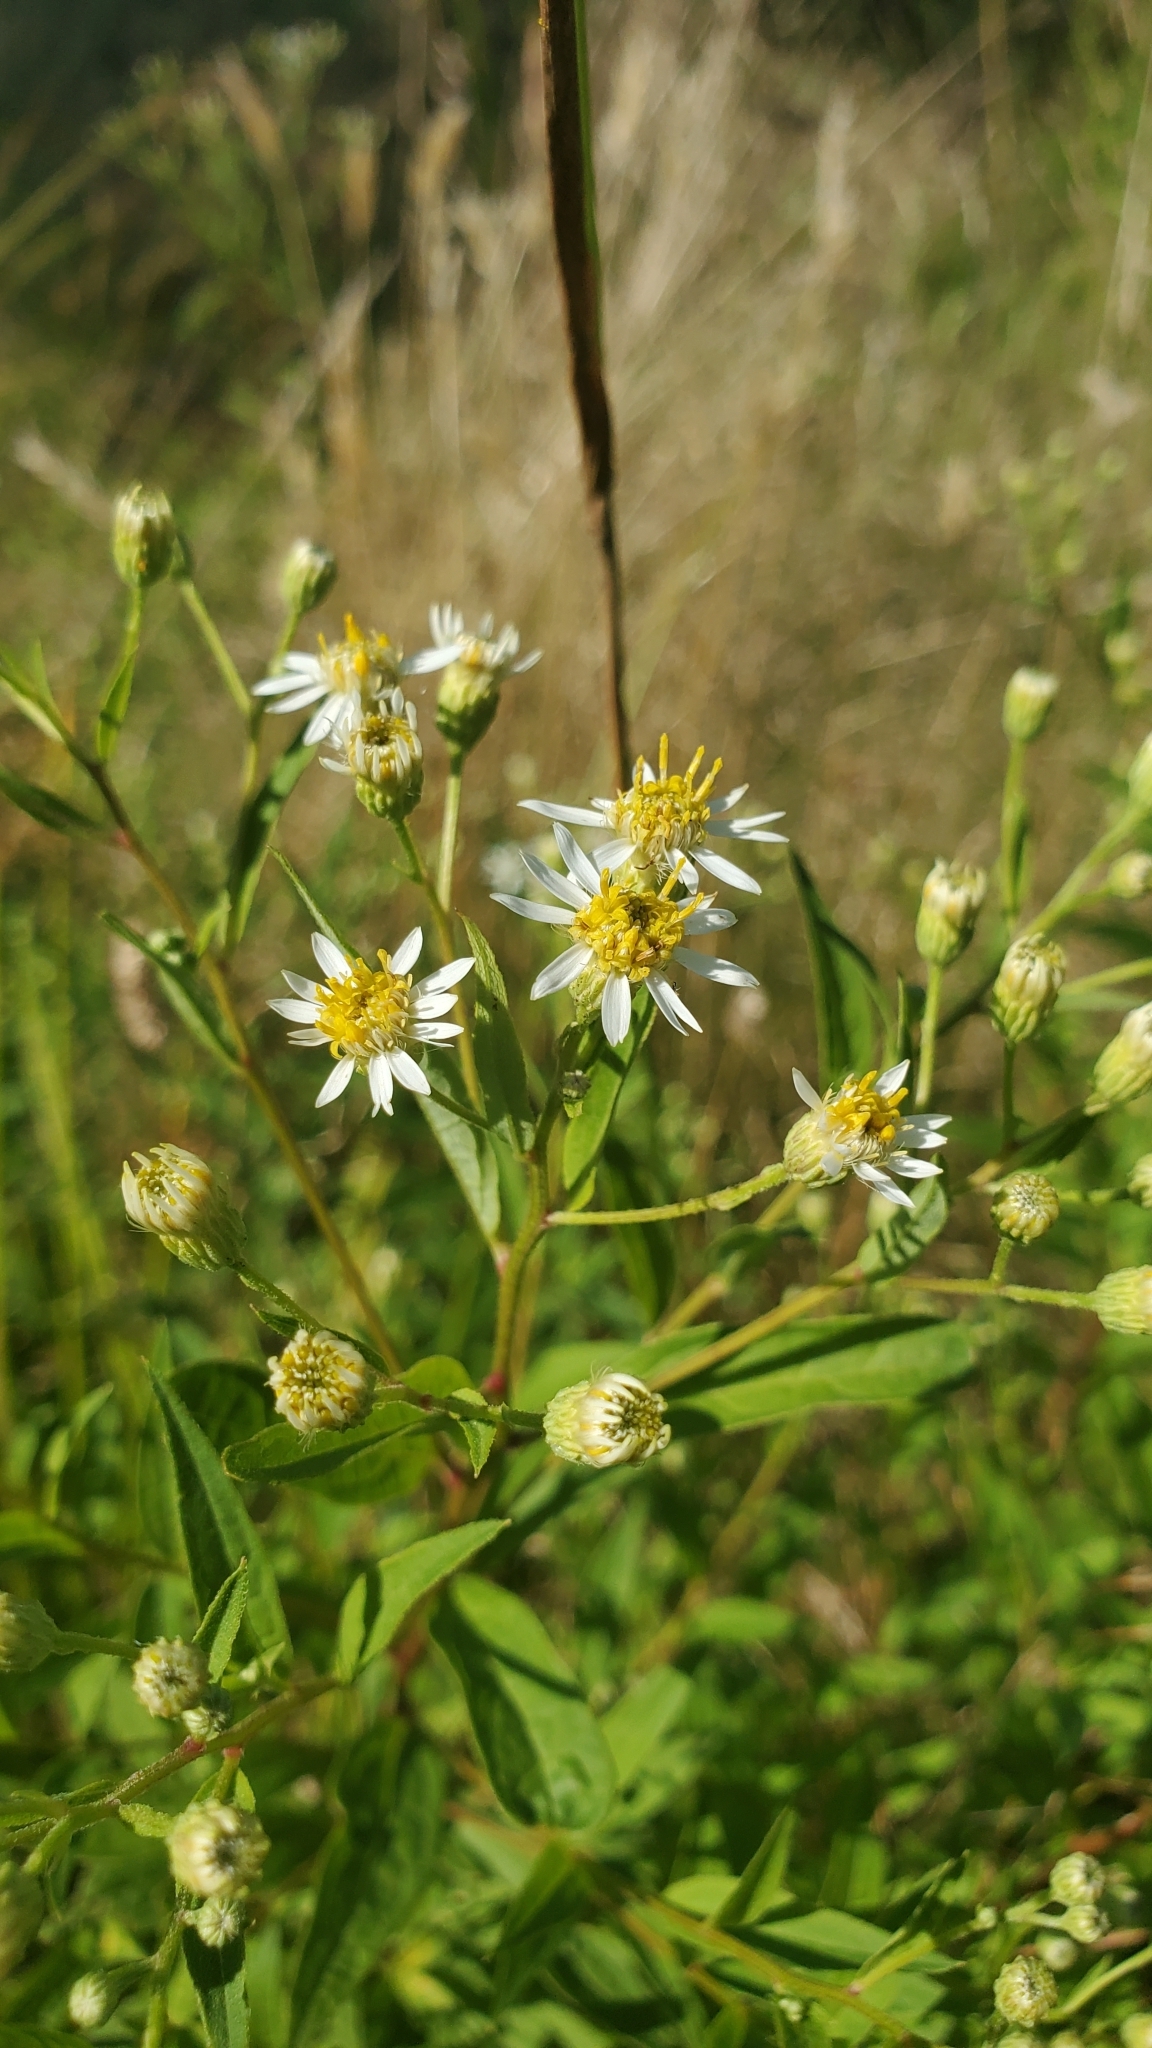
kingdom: Plantae
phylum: Tracheophyta
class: Magnoliopsida
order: Asterales
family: Asteraceae
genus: Doellingeria
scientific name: Doellingeria umbellata
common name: Flat-top white aster
